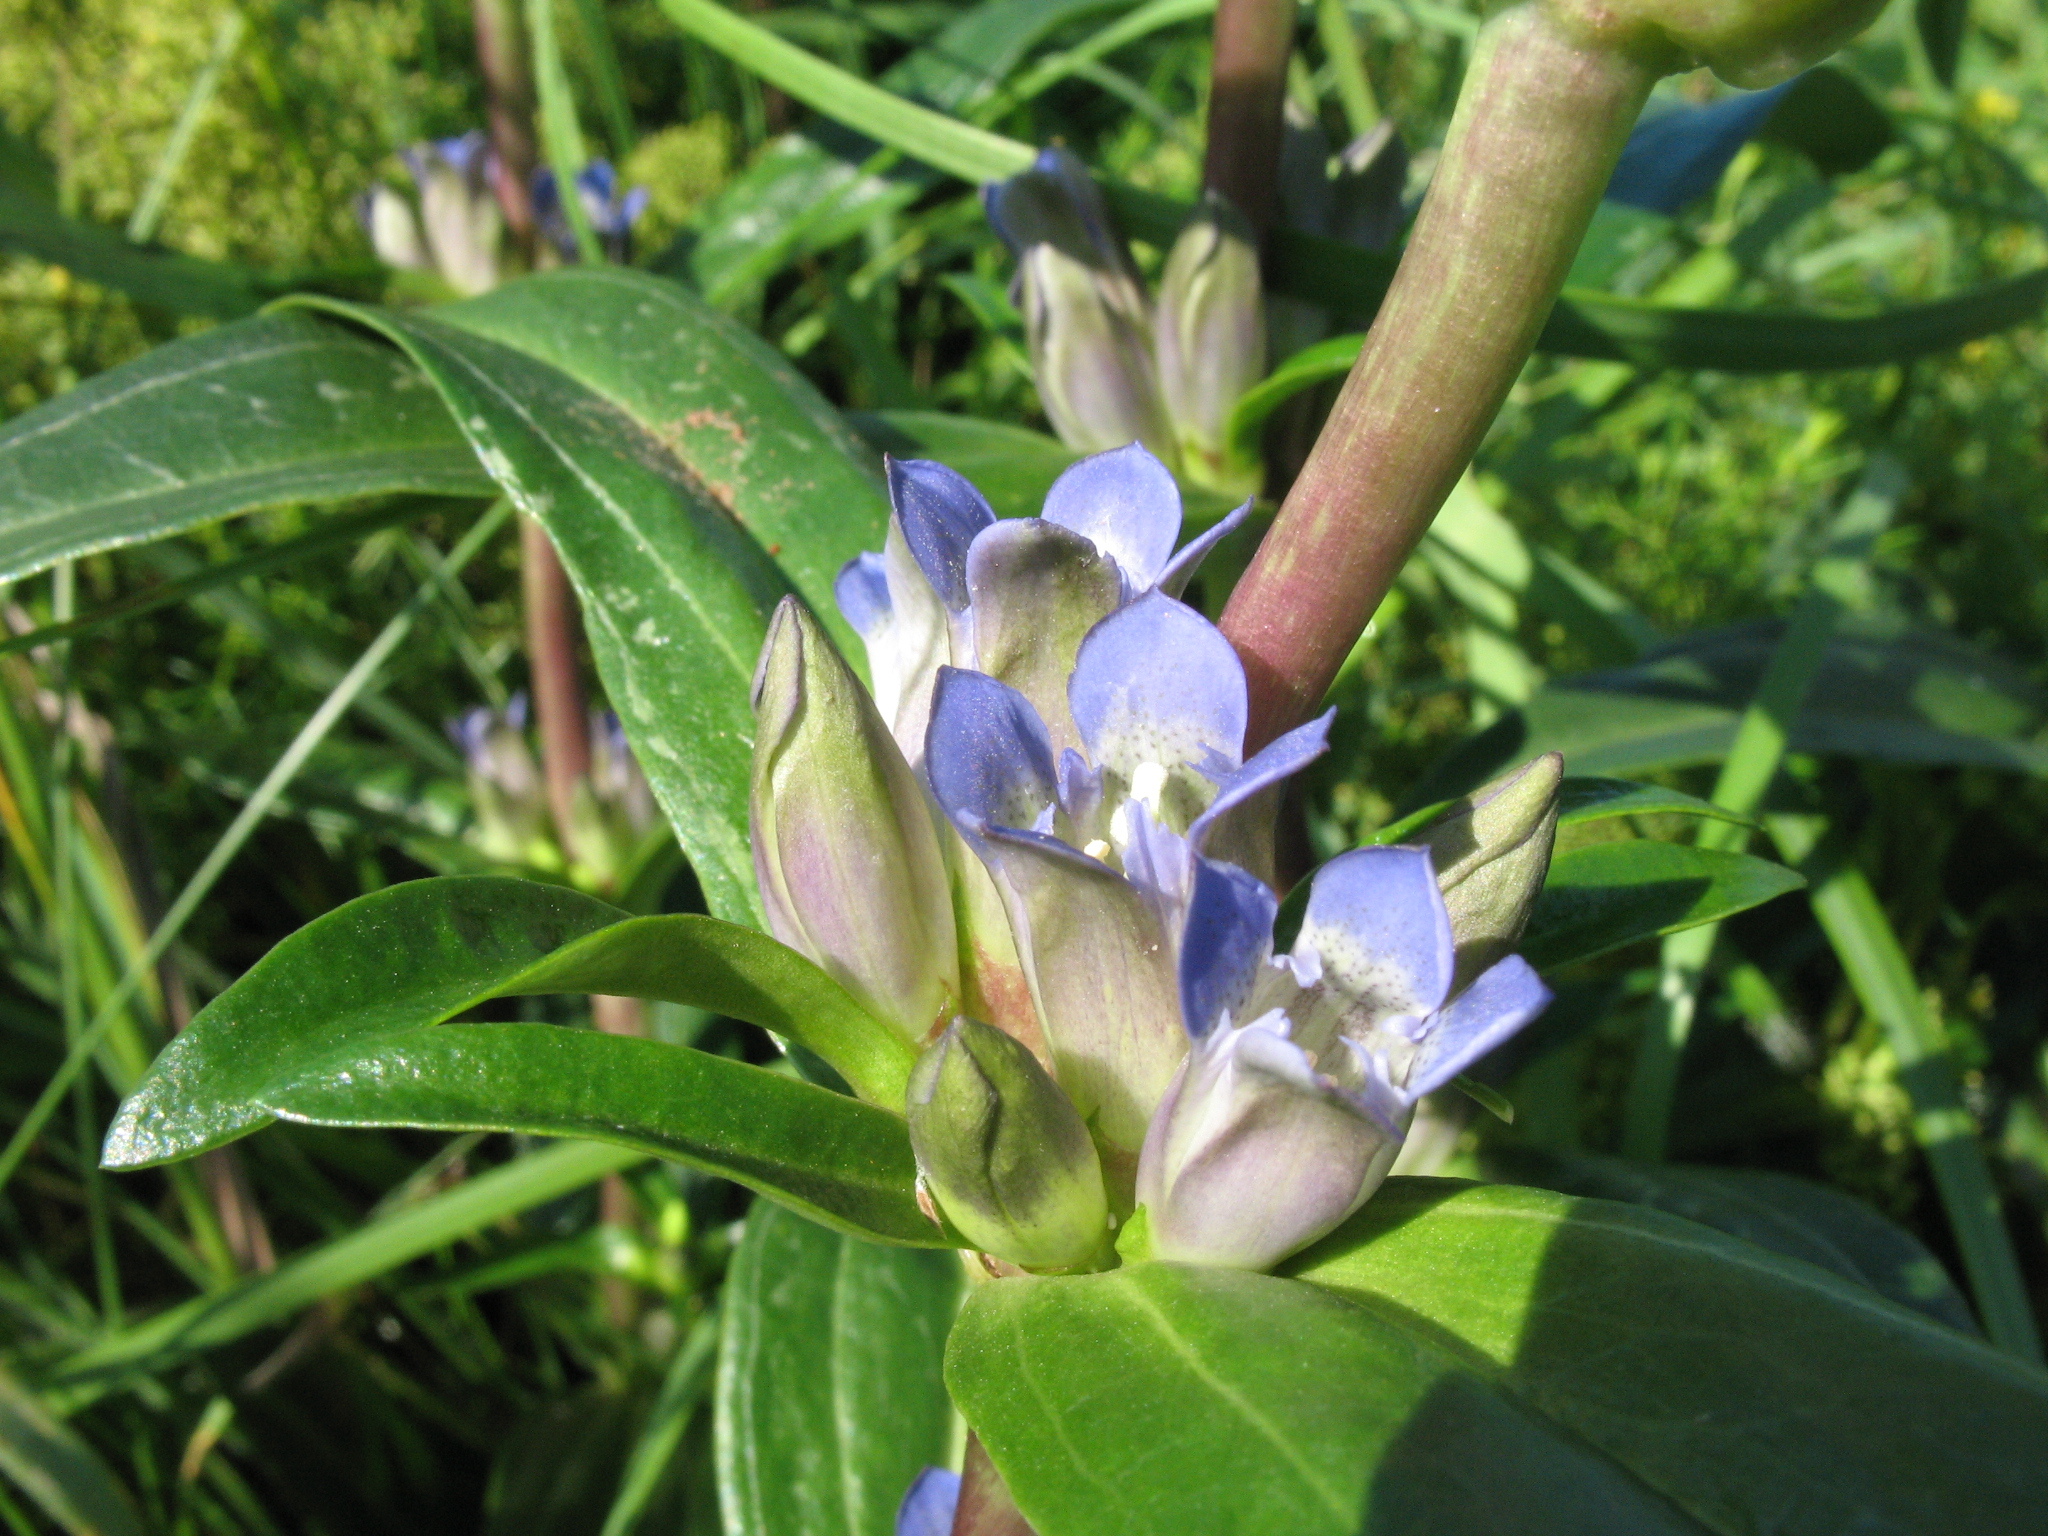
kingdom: Plantae
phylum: Tracheophyta
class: Magnoliopsida
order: Gentianales
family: Gentianaceae
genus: Gentiana
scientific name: Gentiana cruciata
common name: Cross gentian
